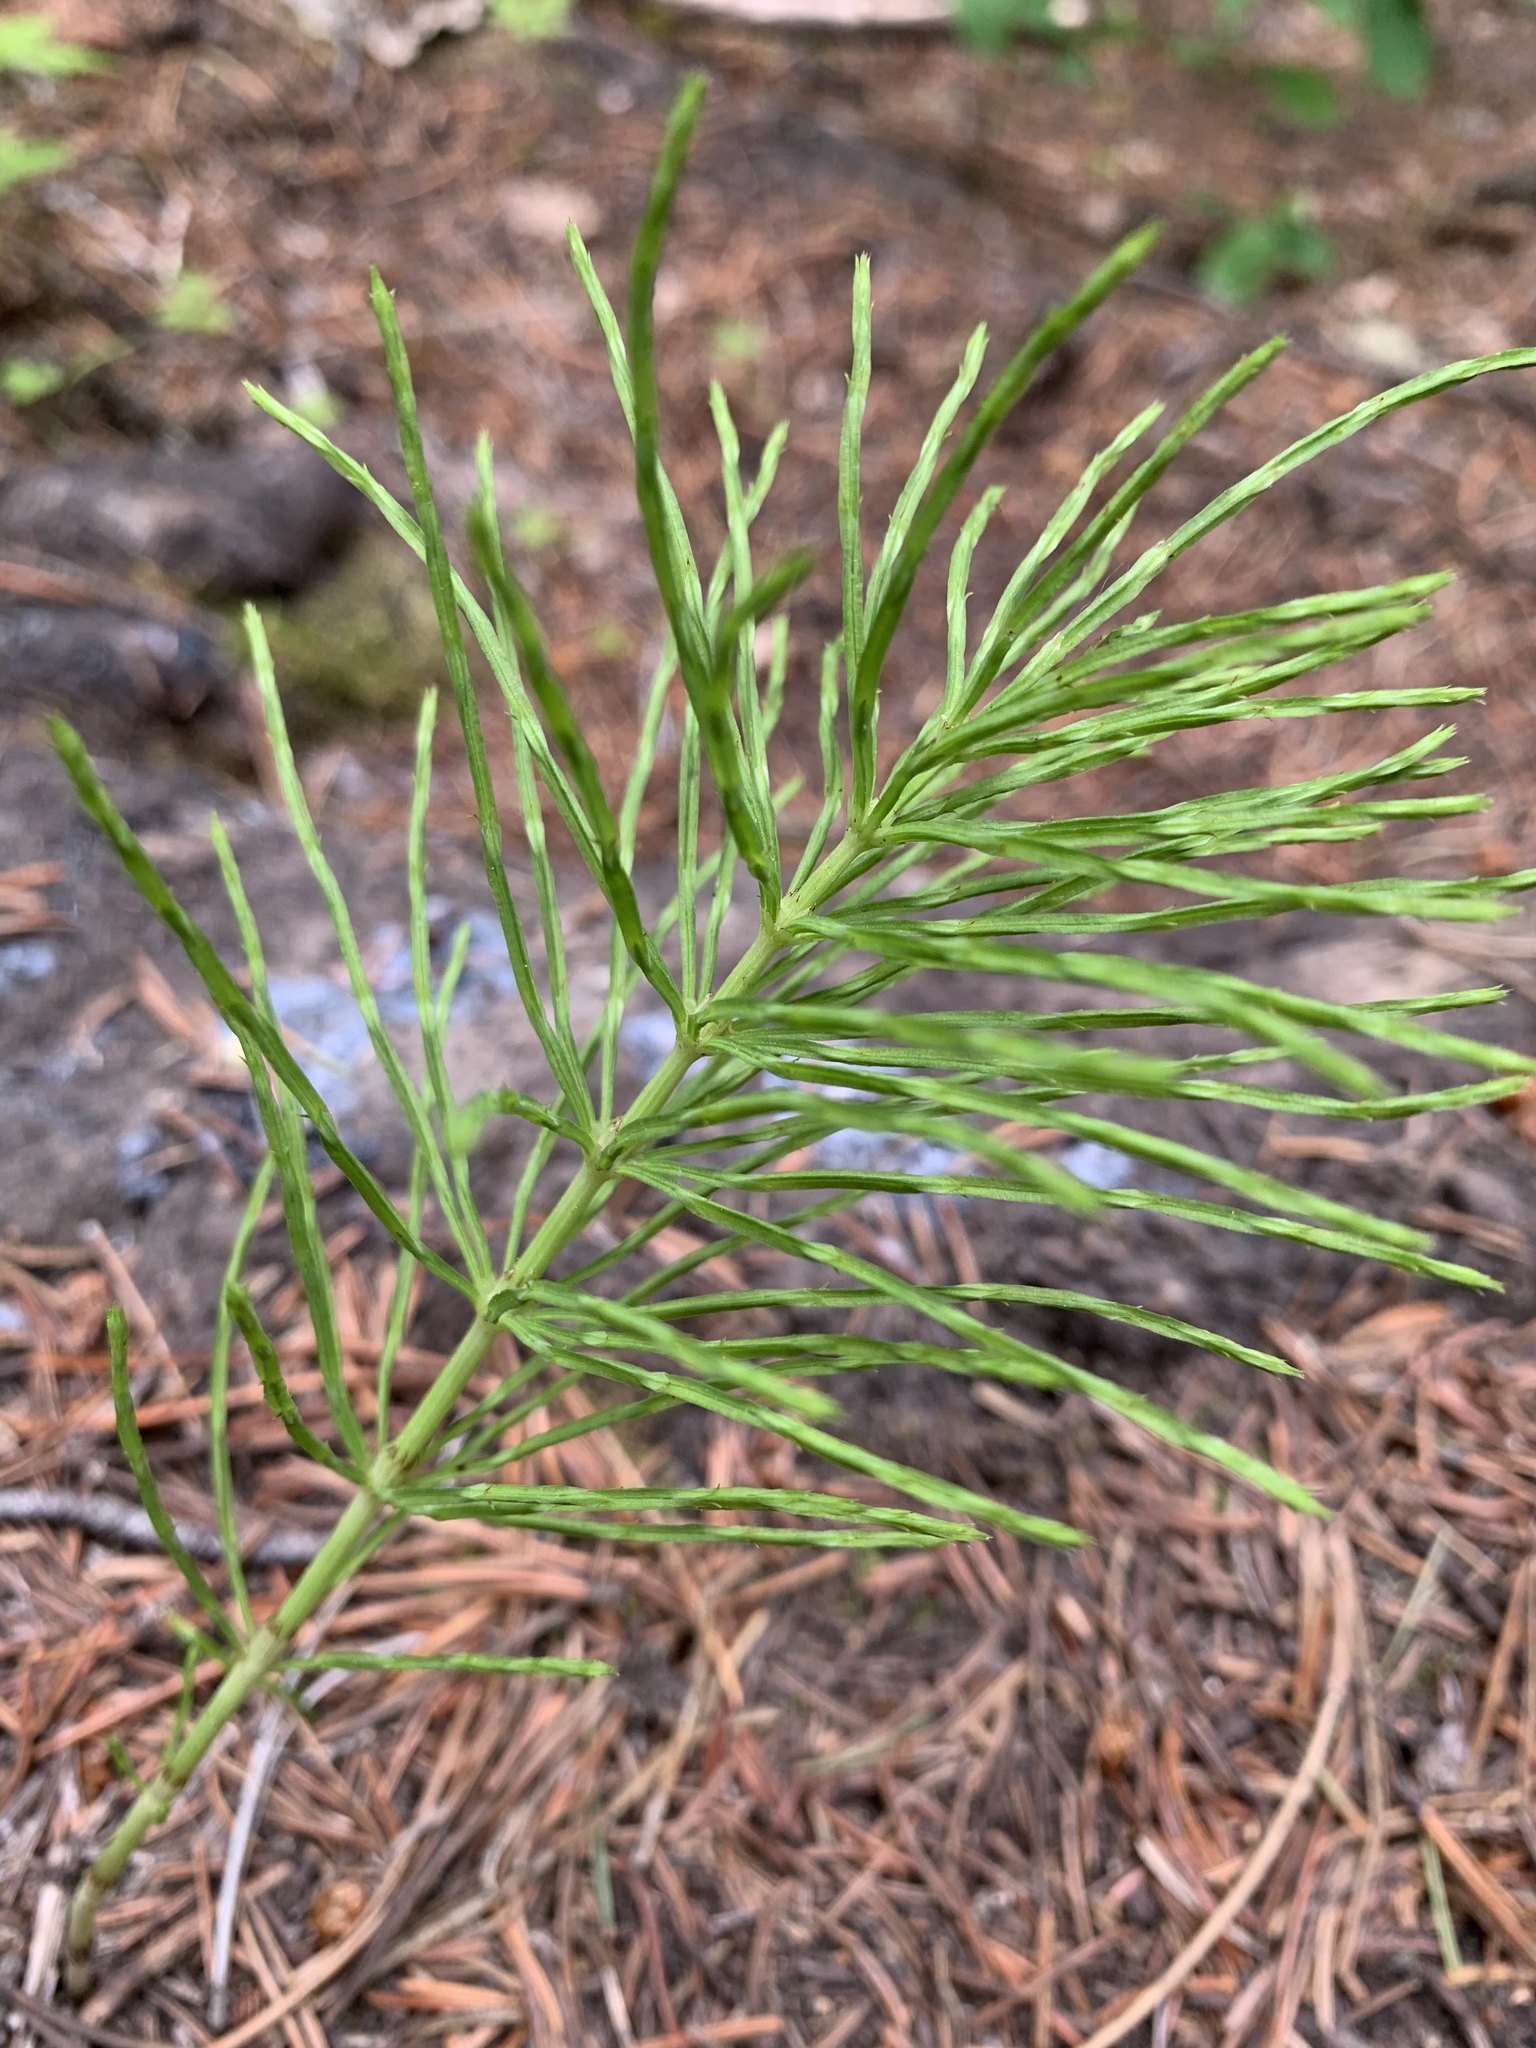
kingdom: Plantae
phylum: Tracheophyta
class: Polypodiopsida
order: Equisetales
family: Equisetaceae
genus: Equisetum
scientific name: Equisetum arvense
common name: Field horsetail
